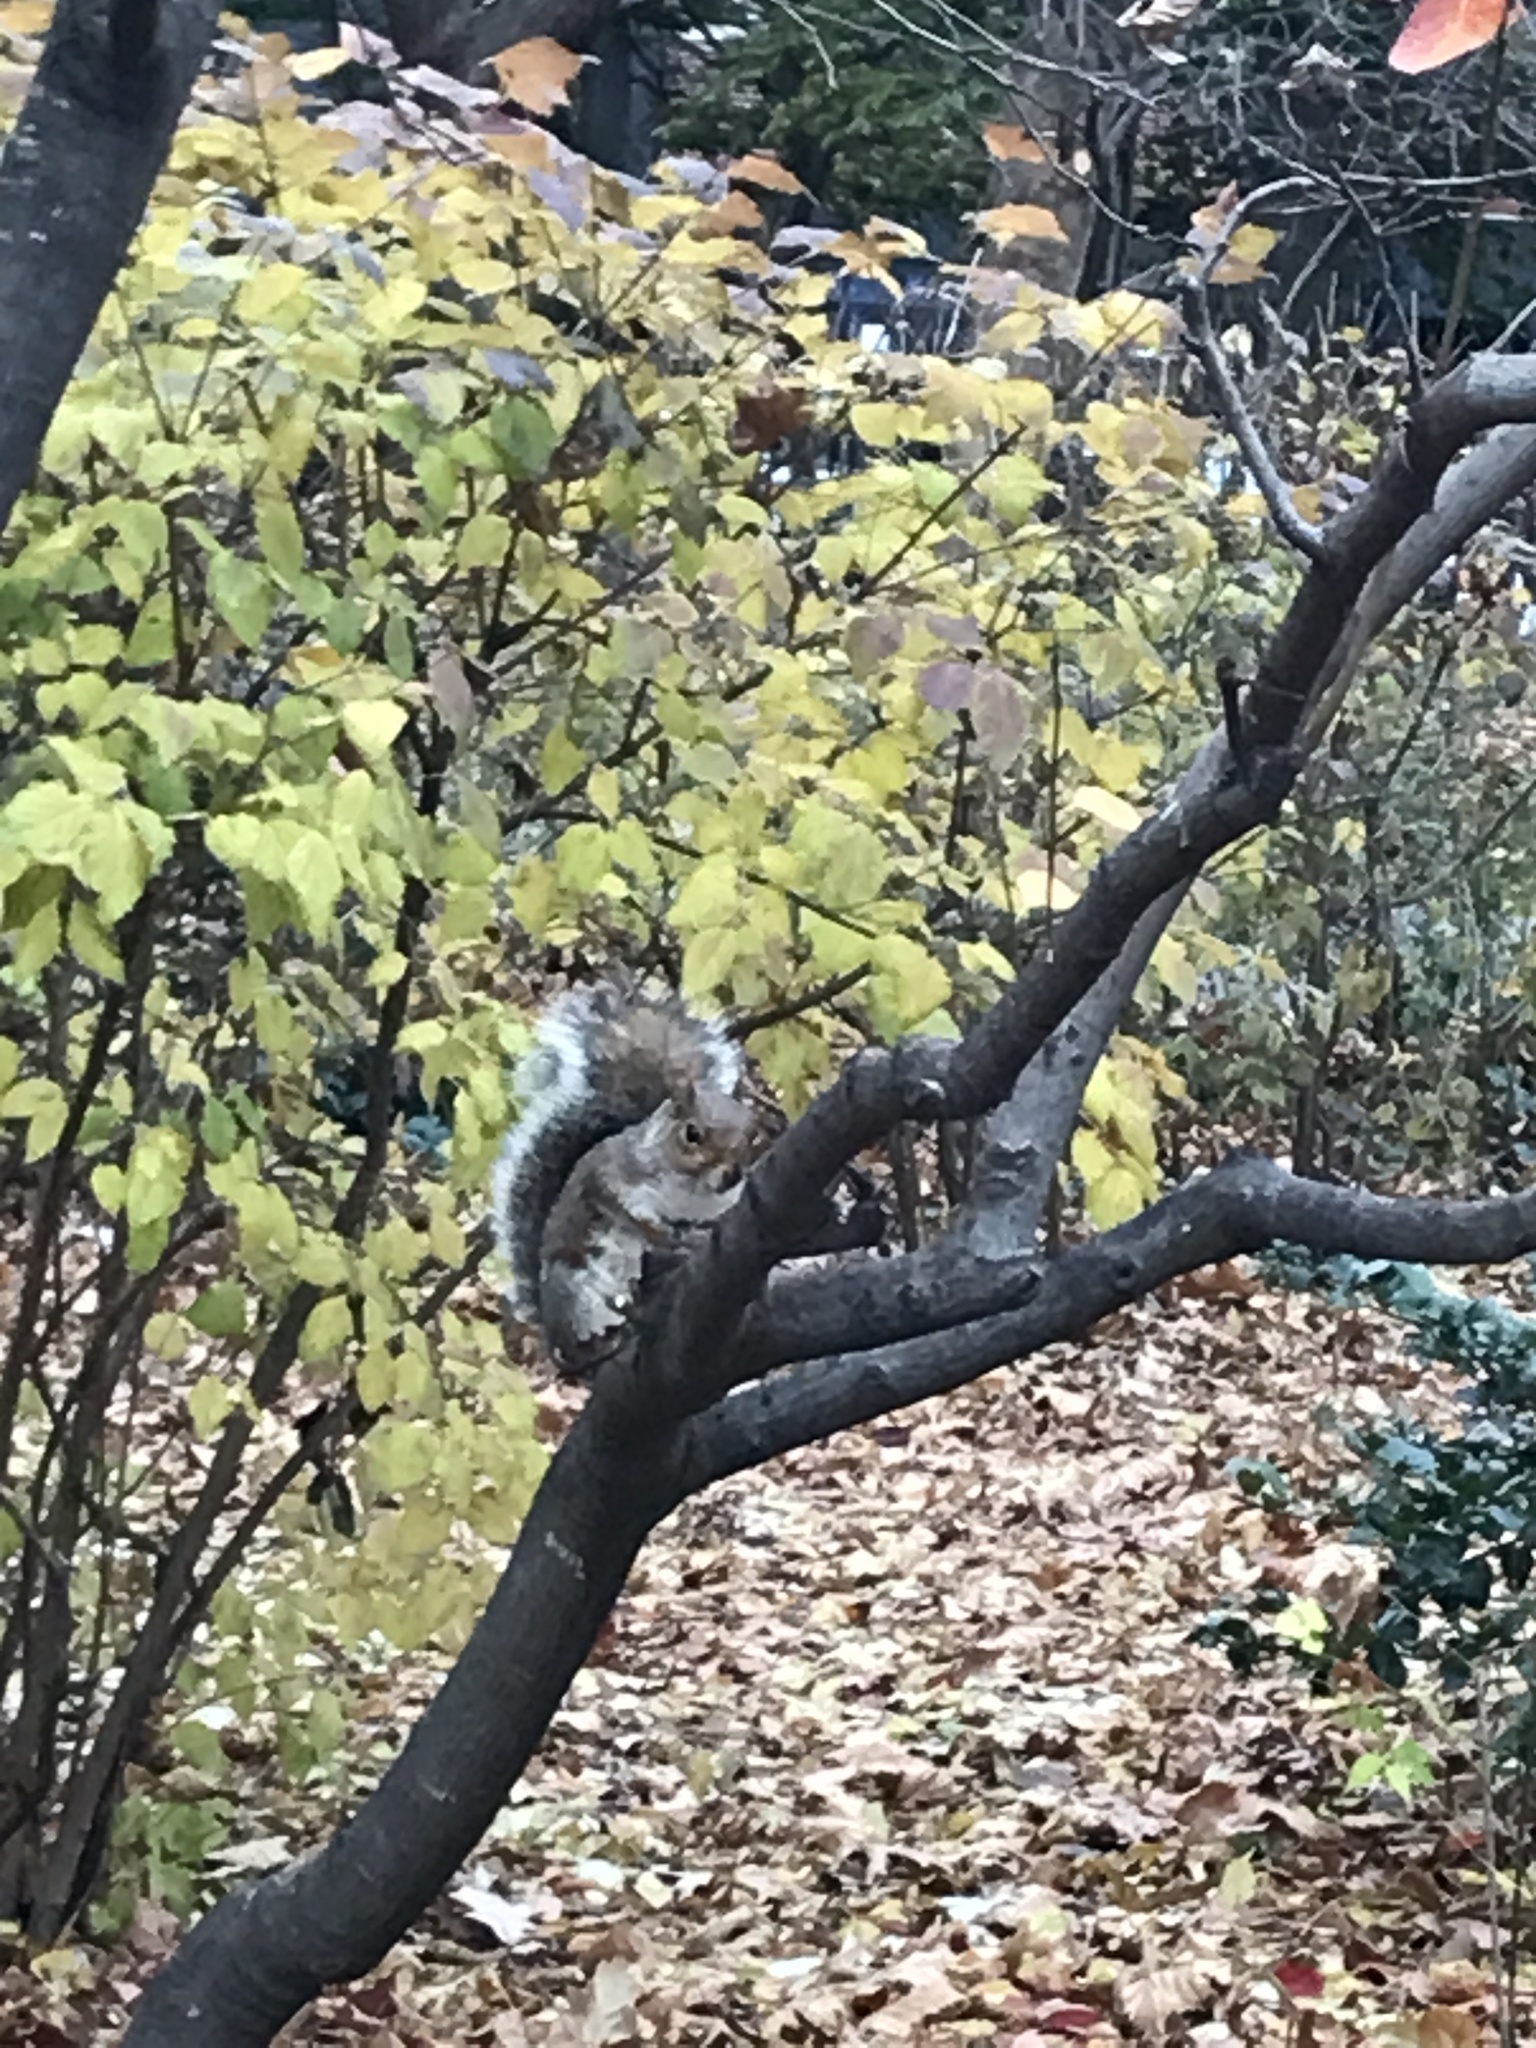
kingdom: Animalia
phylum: Chordata
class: Mammalia
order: Rodentia
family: Sciuridae
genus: Sciurus
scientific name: Sciurus carolinensis
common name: Eastern gray squirrel
